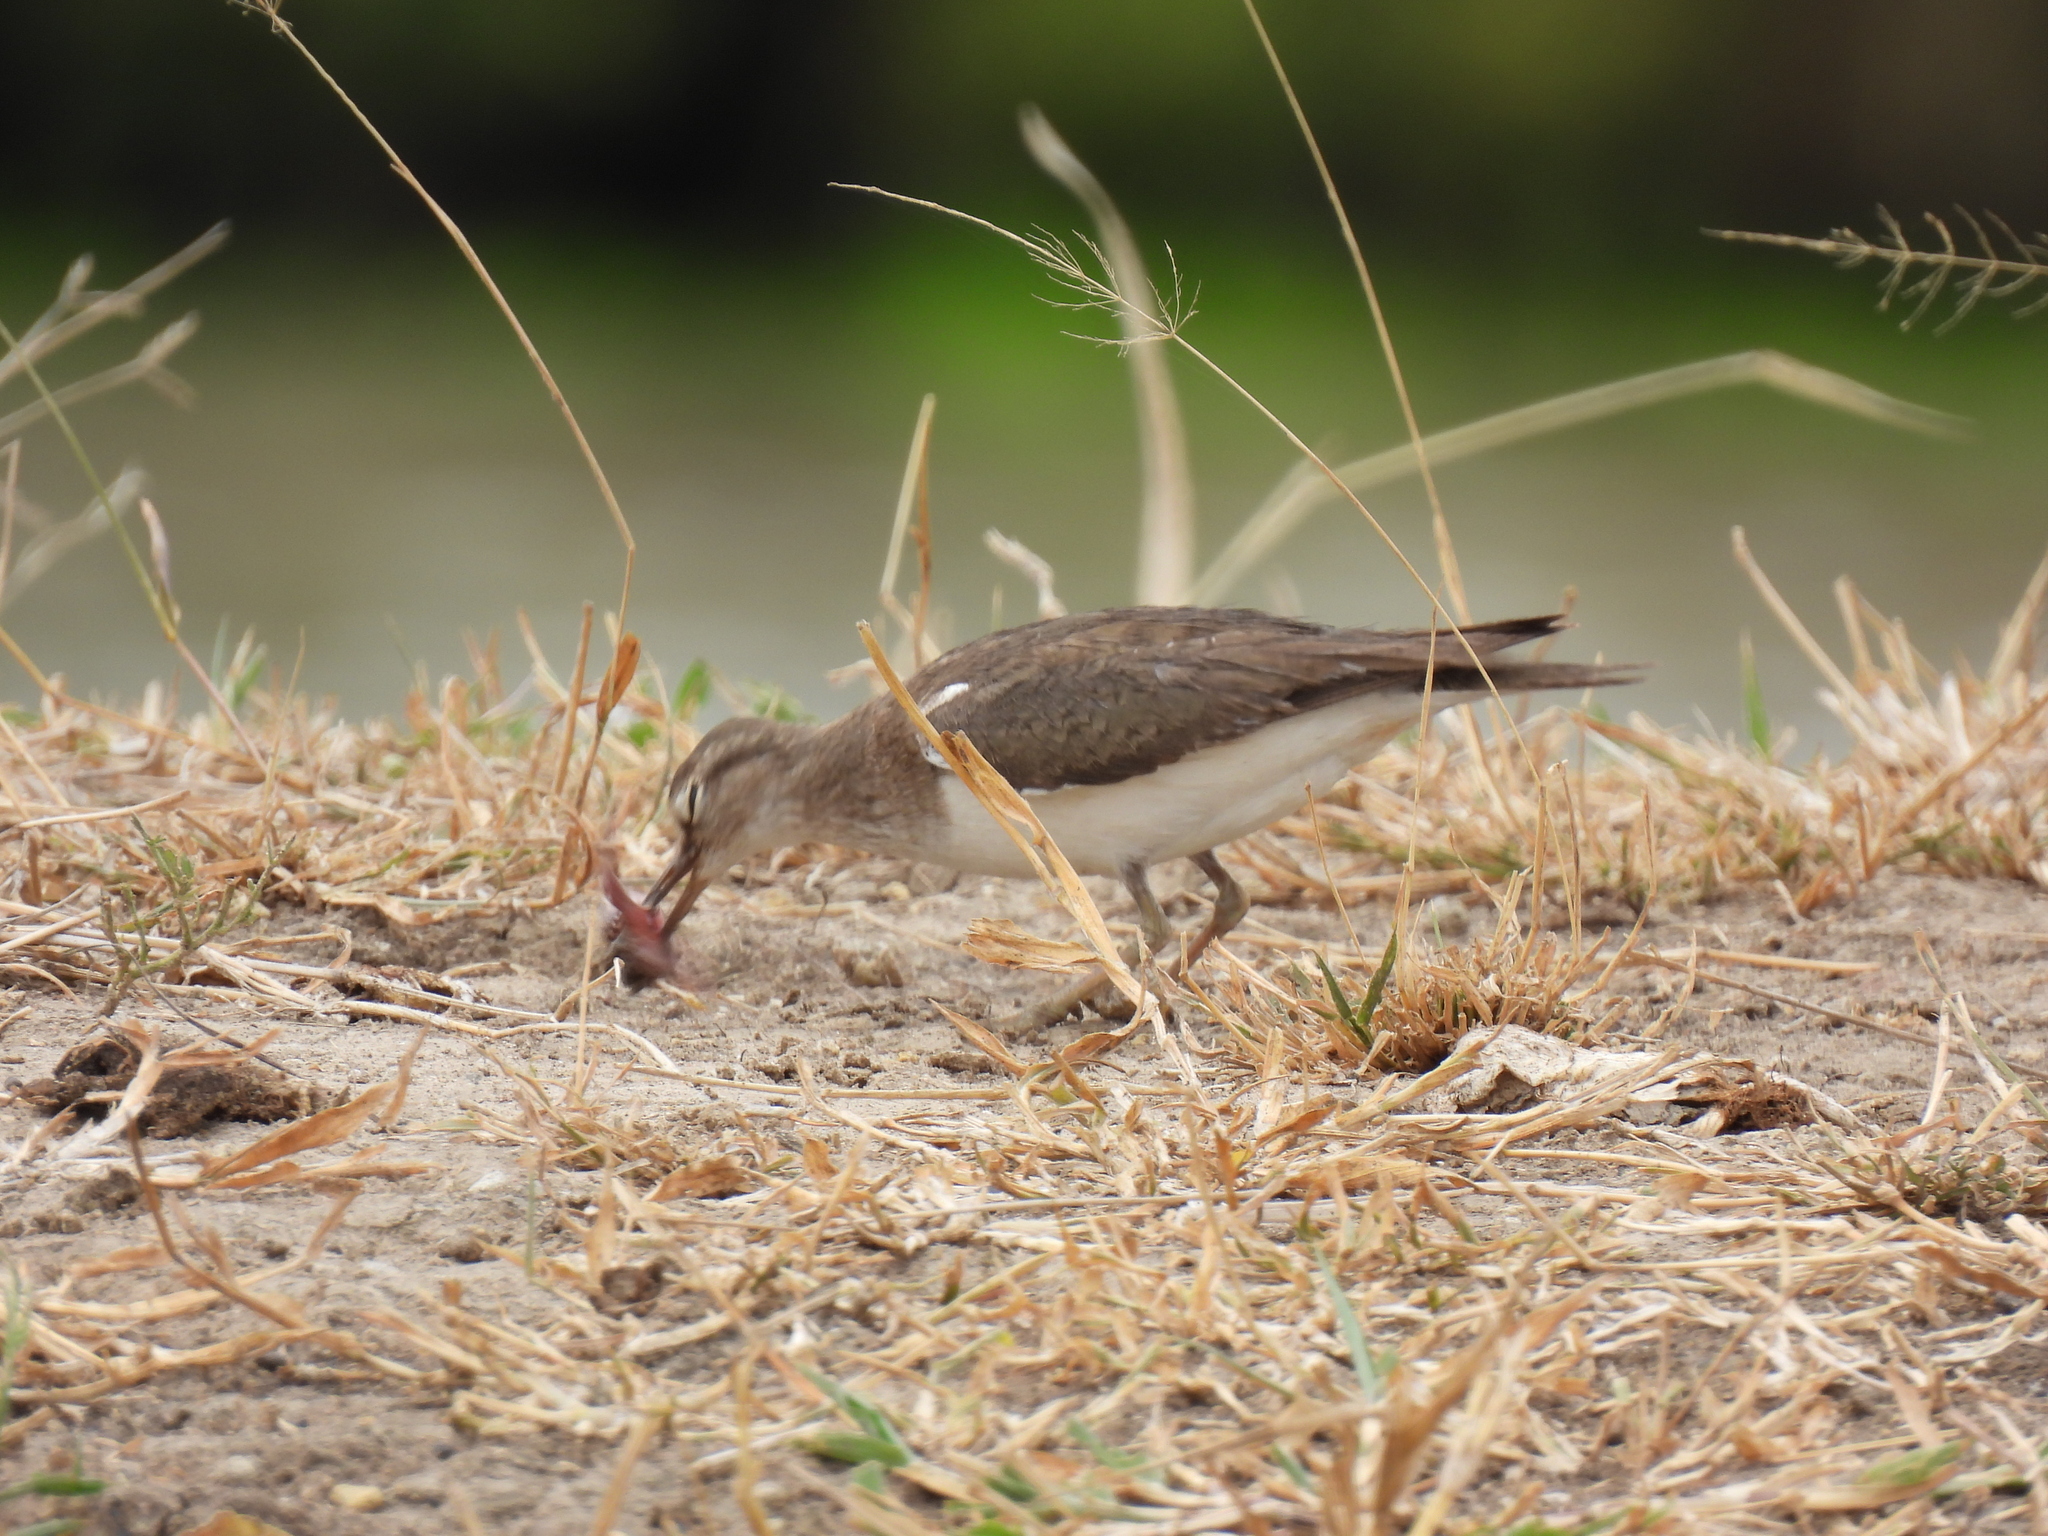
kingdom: Animalia
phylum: Chordata
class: Aves
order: Charadriiformes
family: Scolopacidae
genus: Actitis
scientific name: Actitis hypoleucos
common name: Common sandpiper
